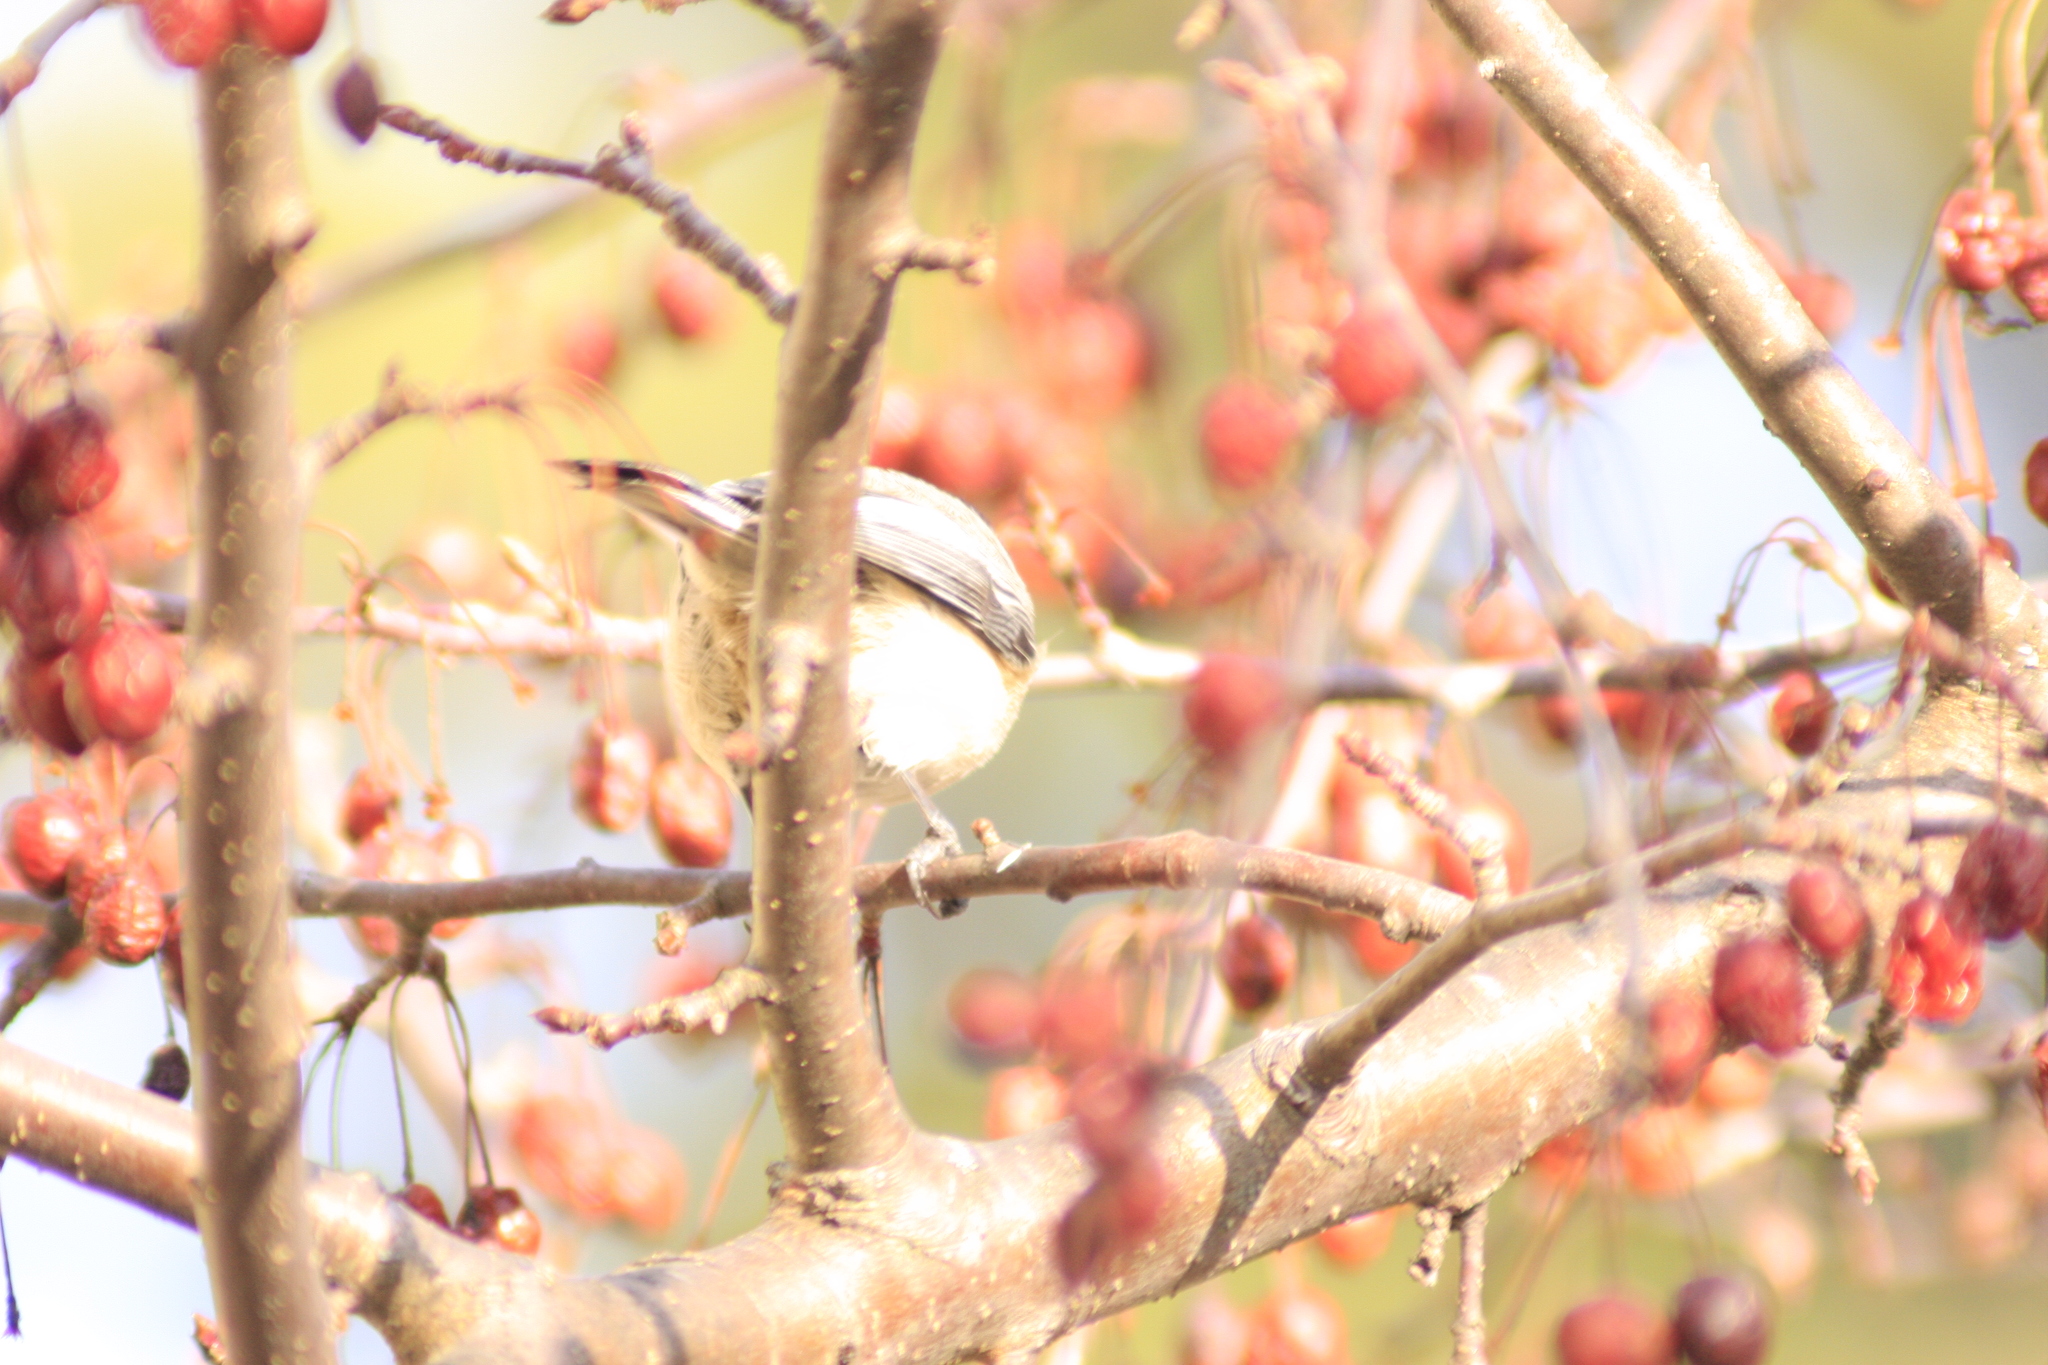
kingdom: Animalia
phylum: Chordata
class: Aves
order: Passeriformes
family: Paridae
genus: Poecile
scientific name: Poecile atricapillus
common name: Black-capped chickadee
